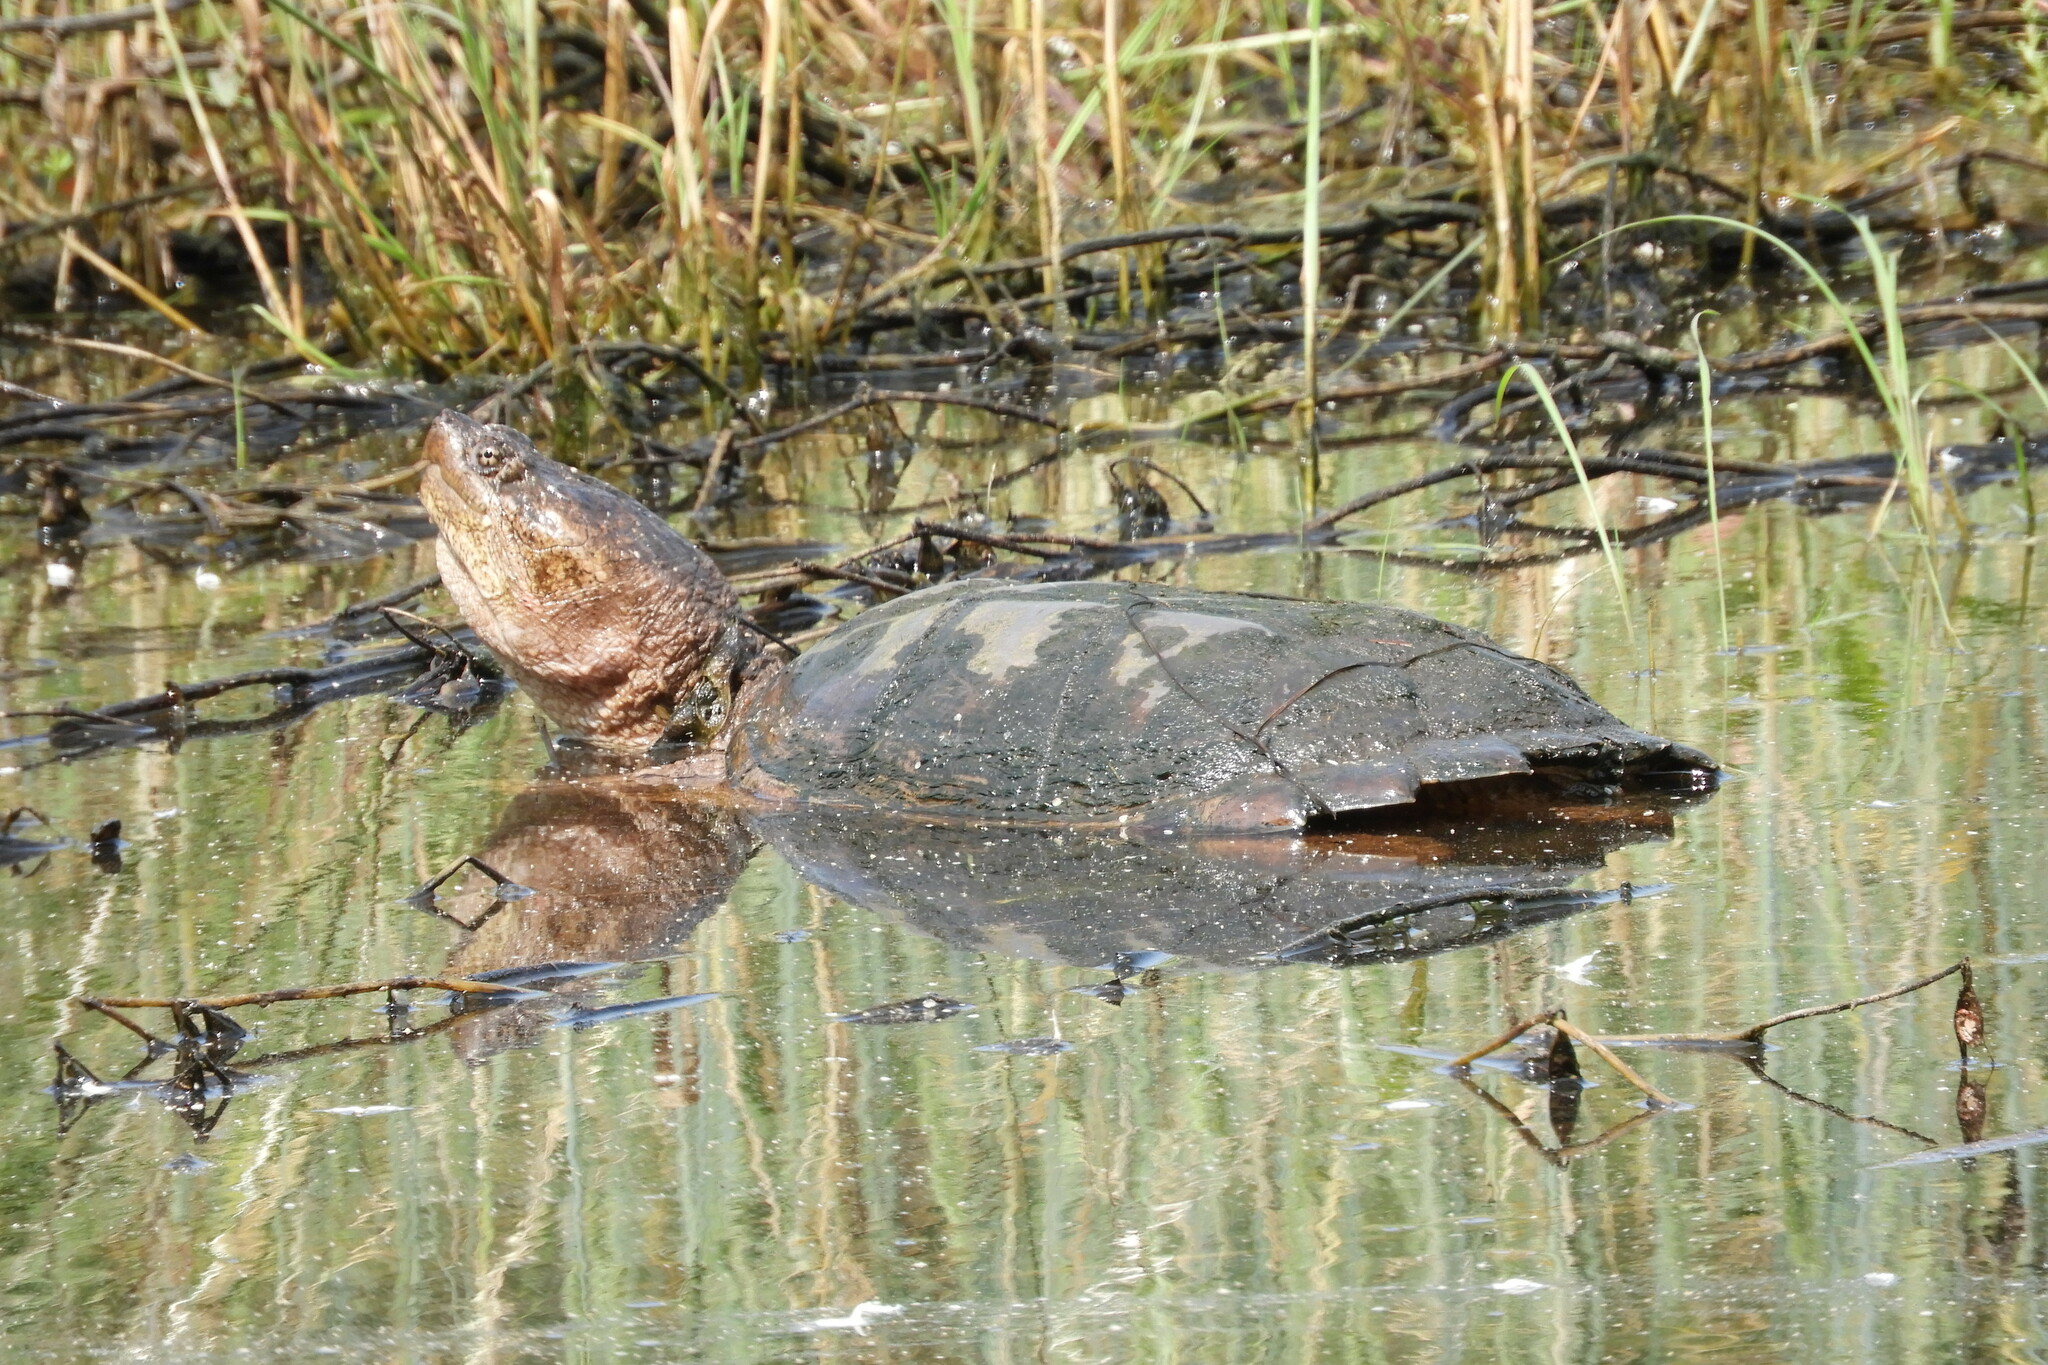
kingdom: Animalia
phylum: Chordata
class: Testudines
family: Chelydridae
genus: Chelydra
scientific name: Chelydra serpentina
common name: Common snapping turtle
